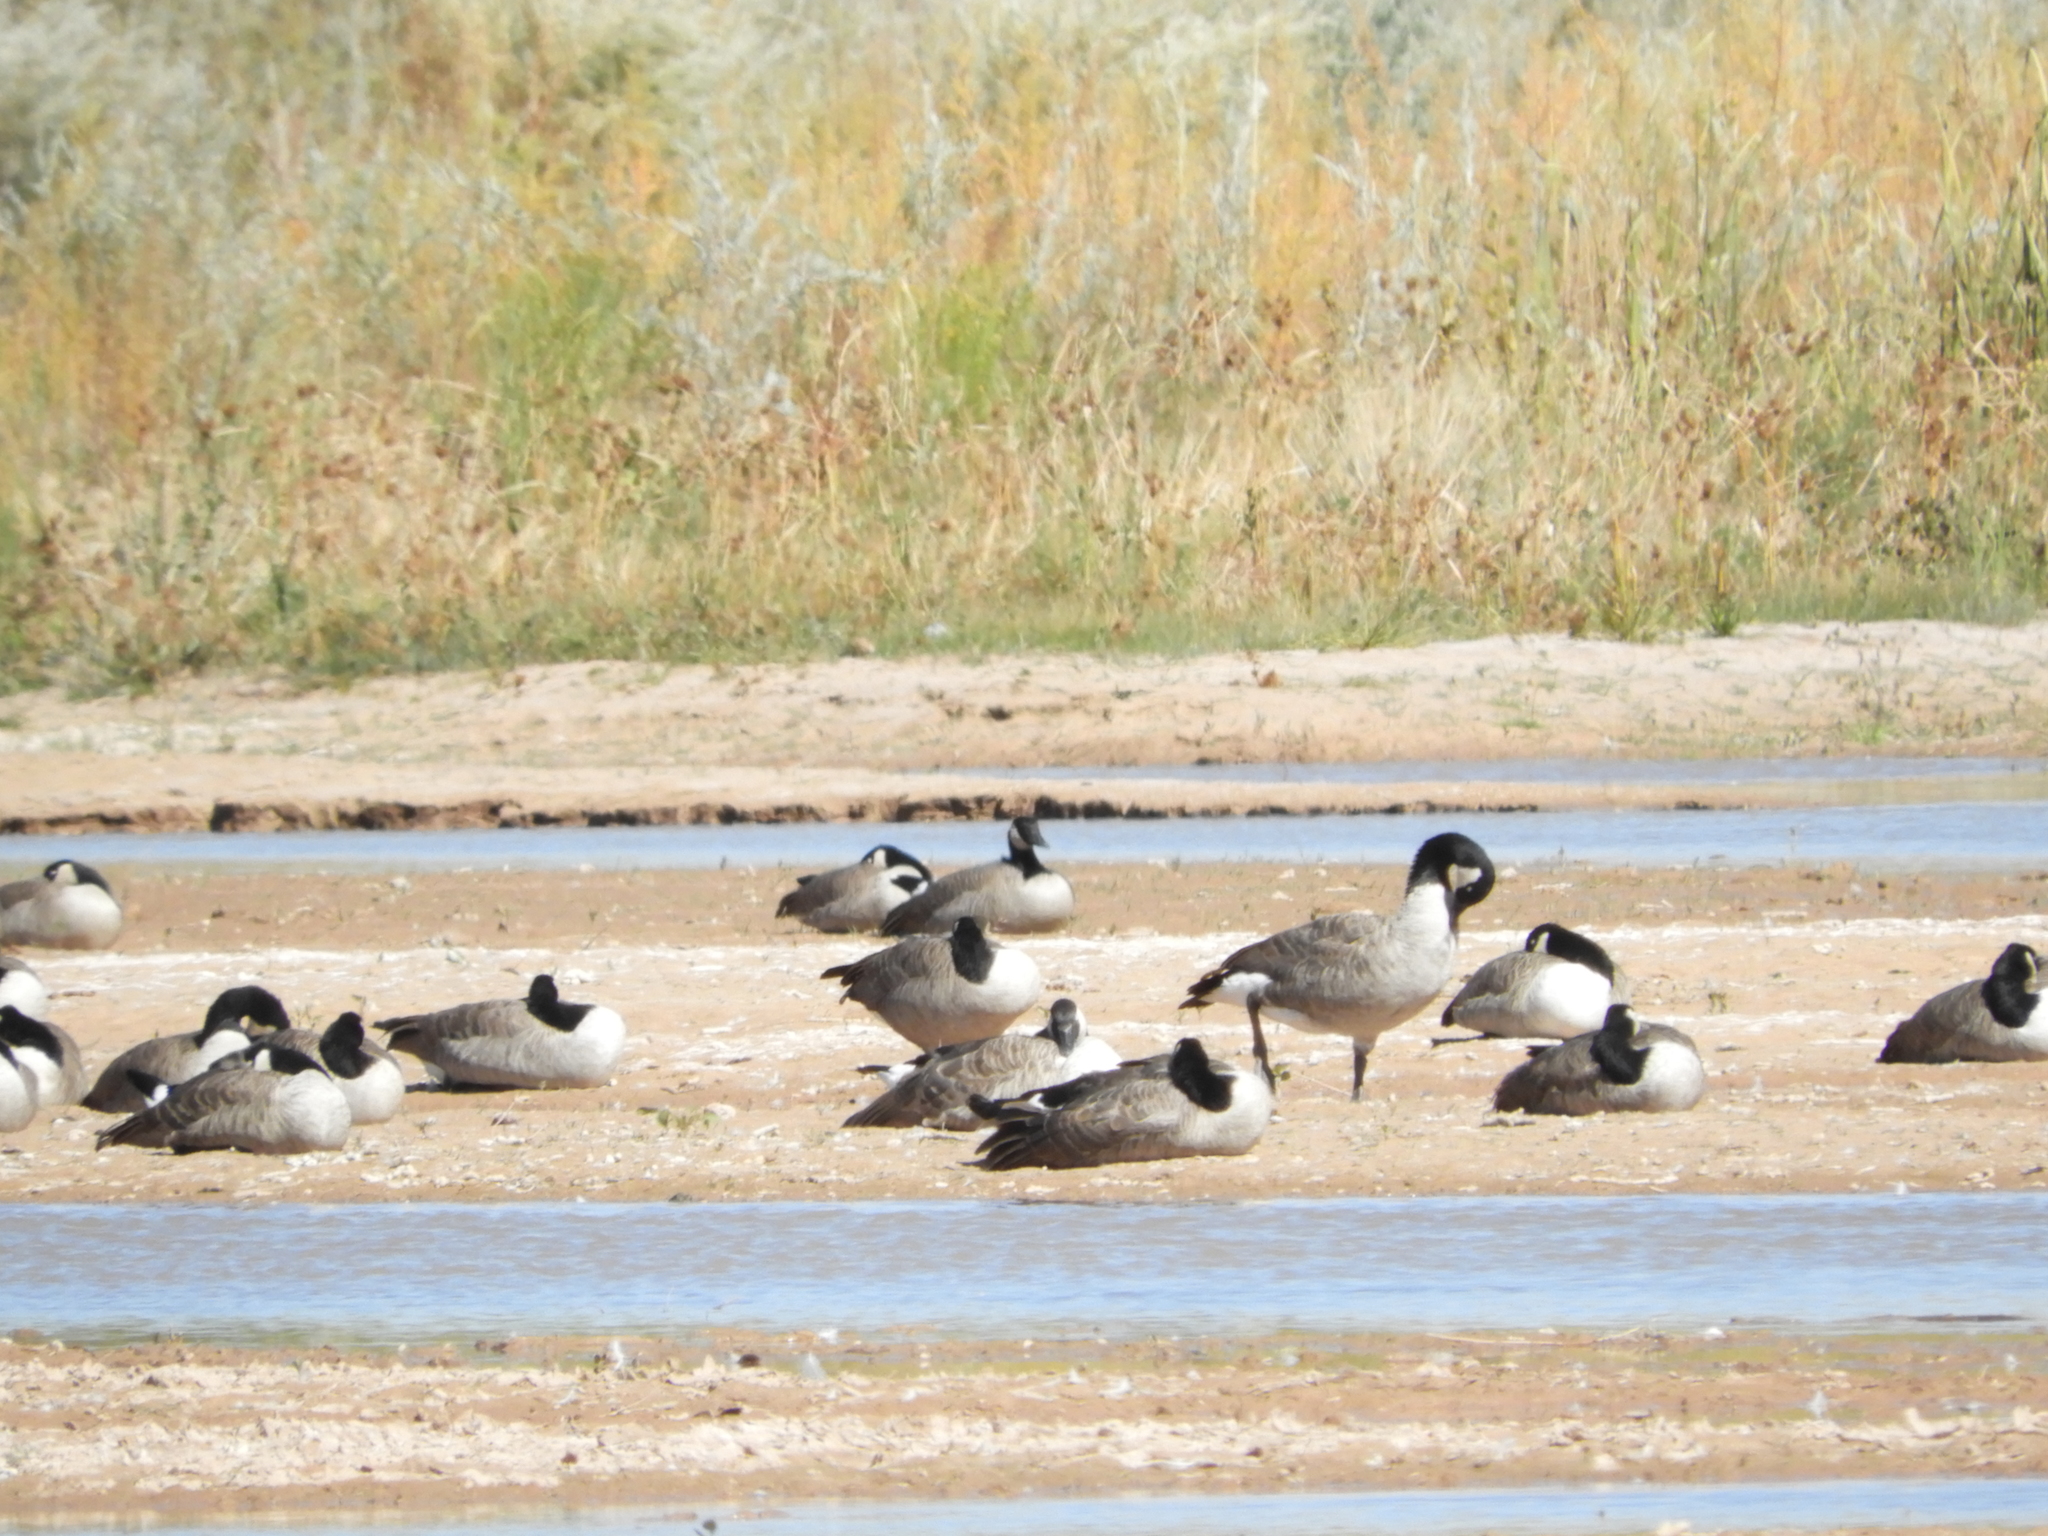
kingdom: Animalia
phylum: Chordata
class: Aves
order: Anseriformes
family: Anatidae
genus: Branta
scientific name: Branta canadensis
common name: Canada goose
